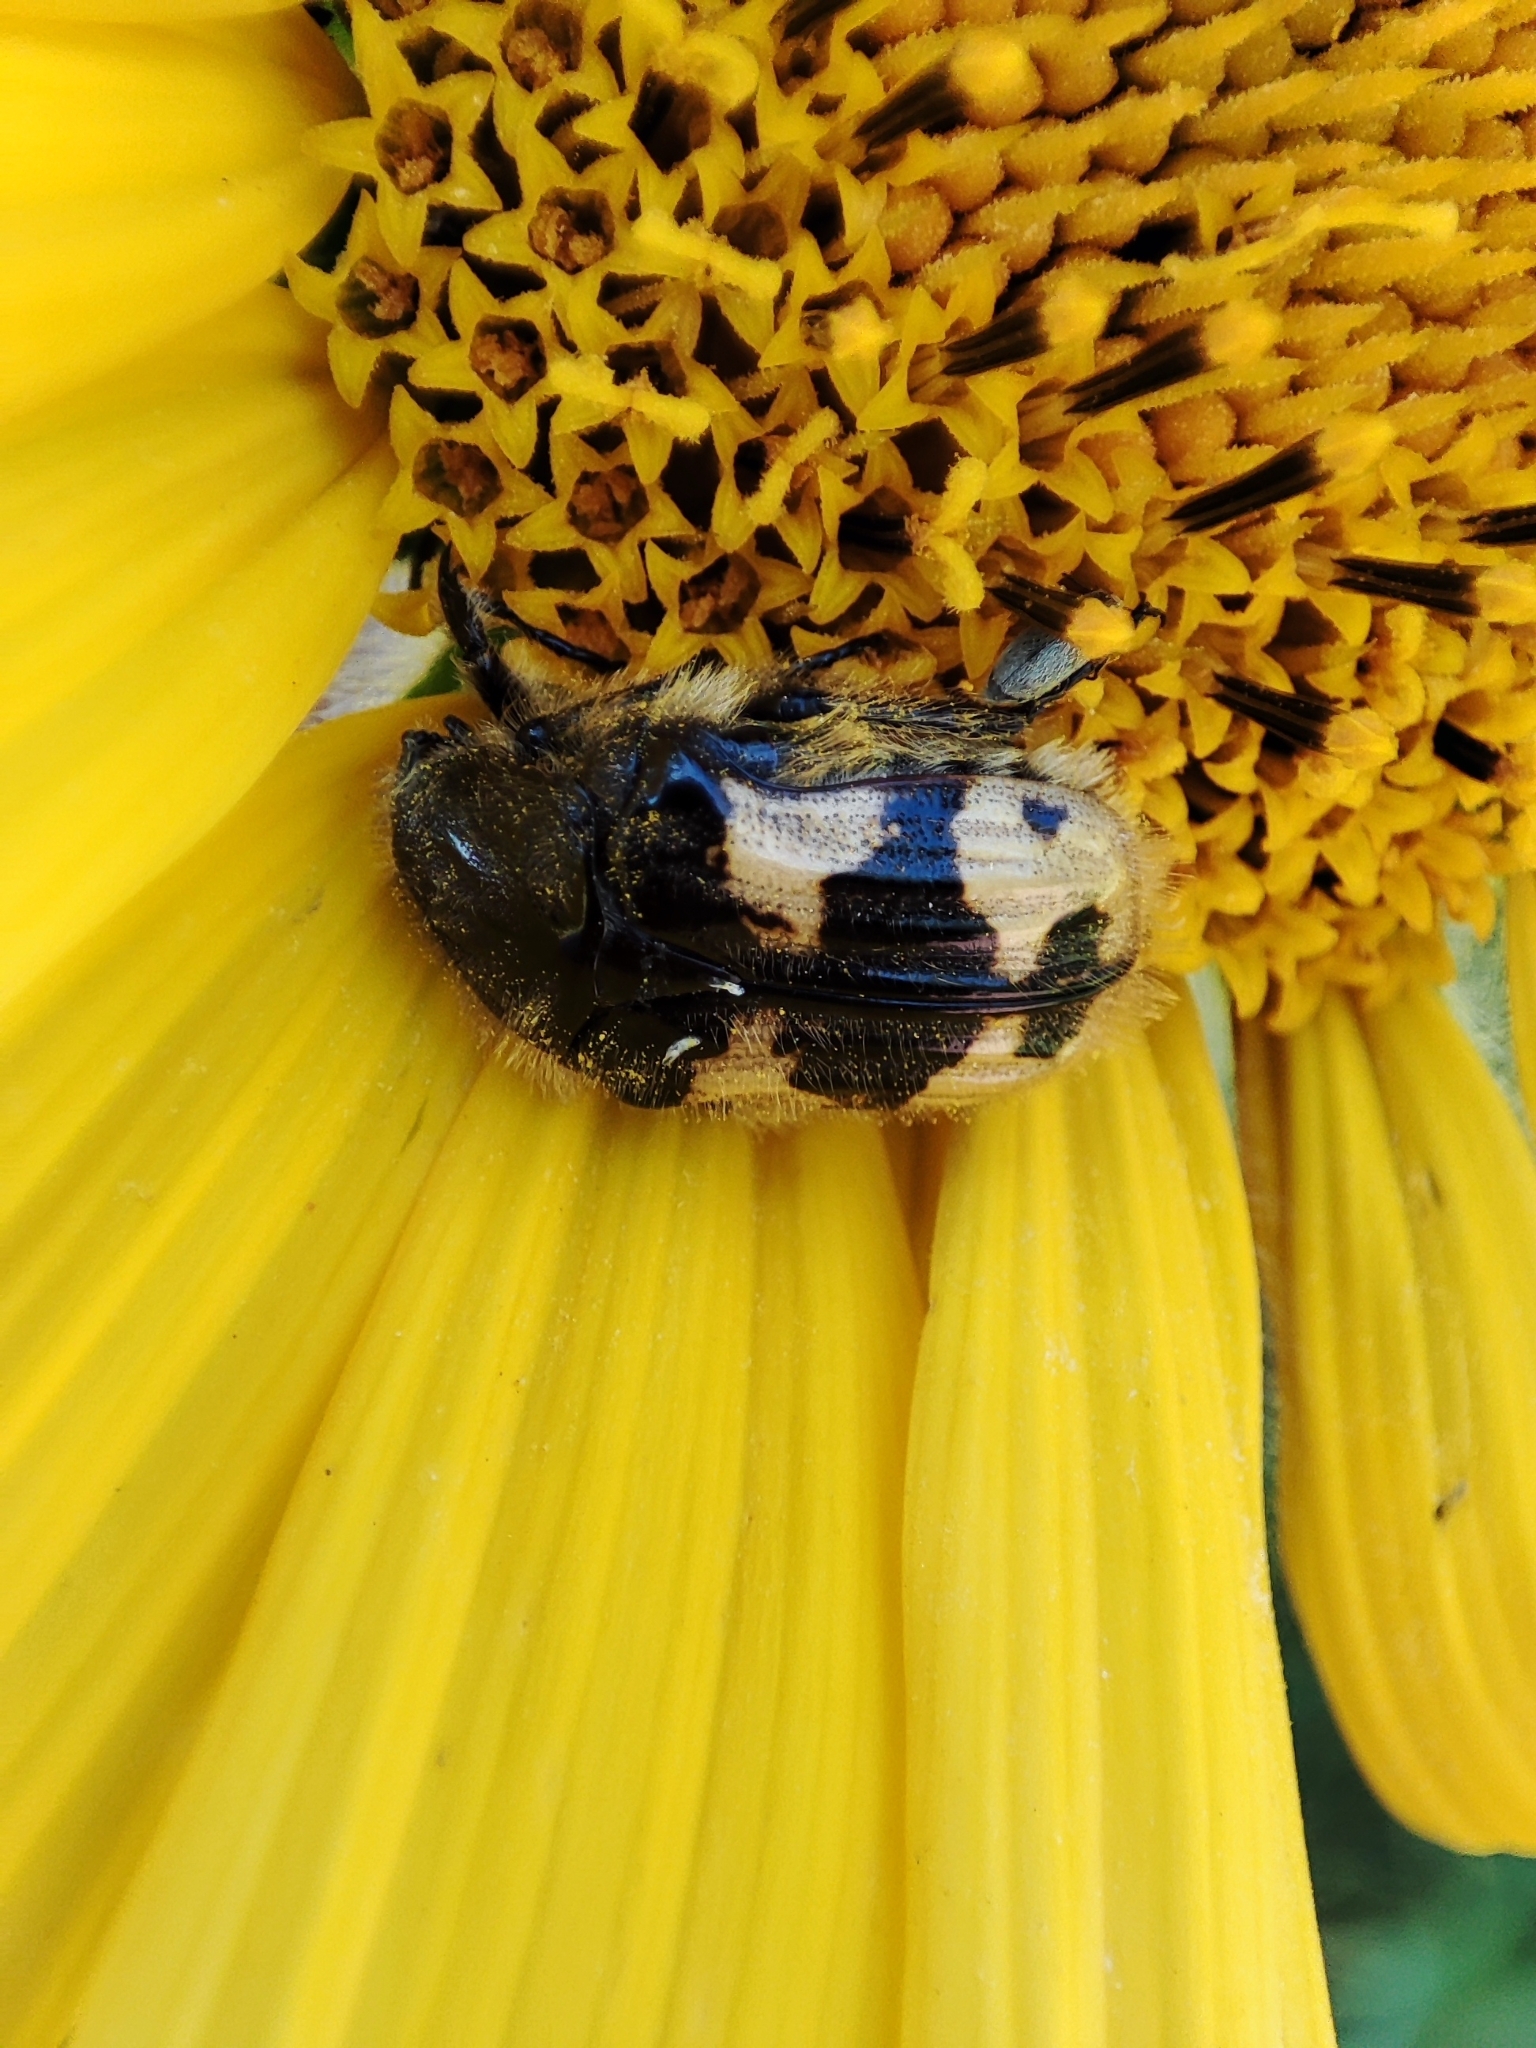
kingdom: Animalia
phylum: Arthropoda
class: Insecta
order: Coleoptera
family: Scarabaeidae
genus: Euphoria
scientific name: Euphoria basalis
